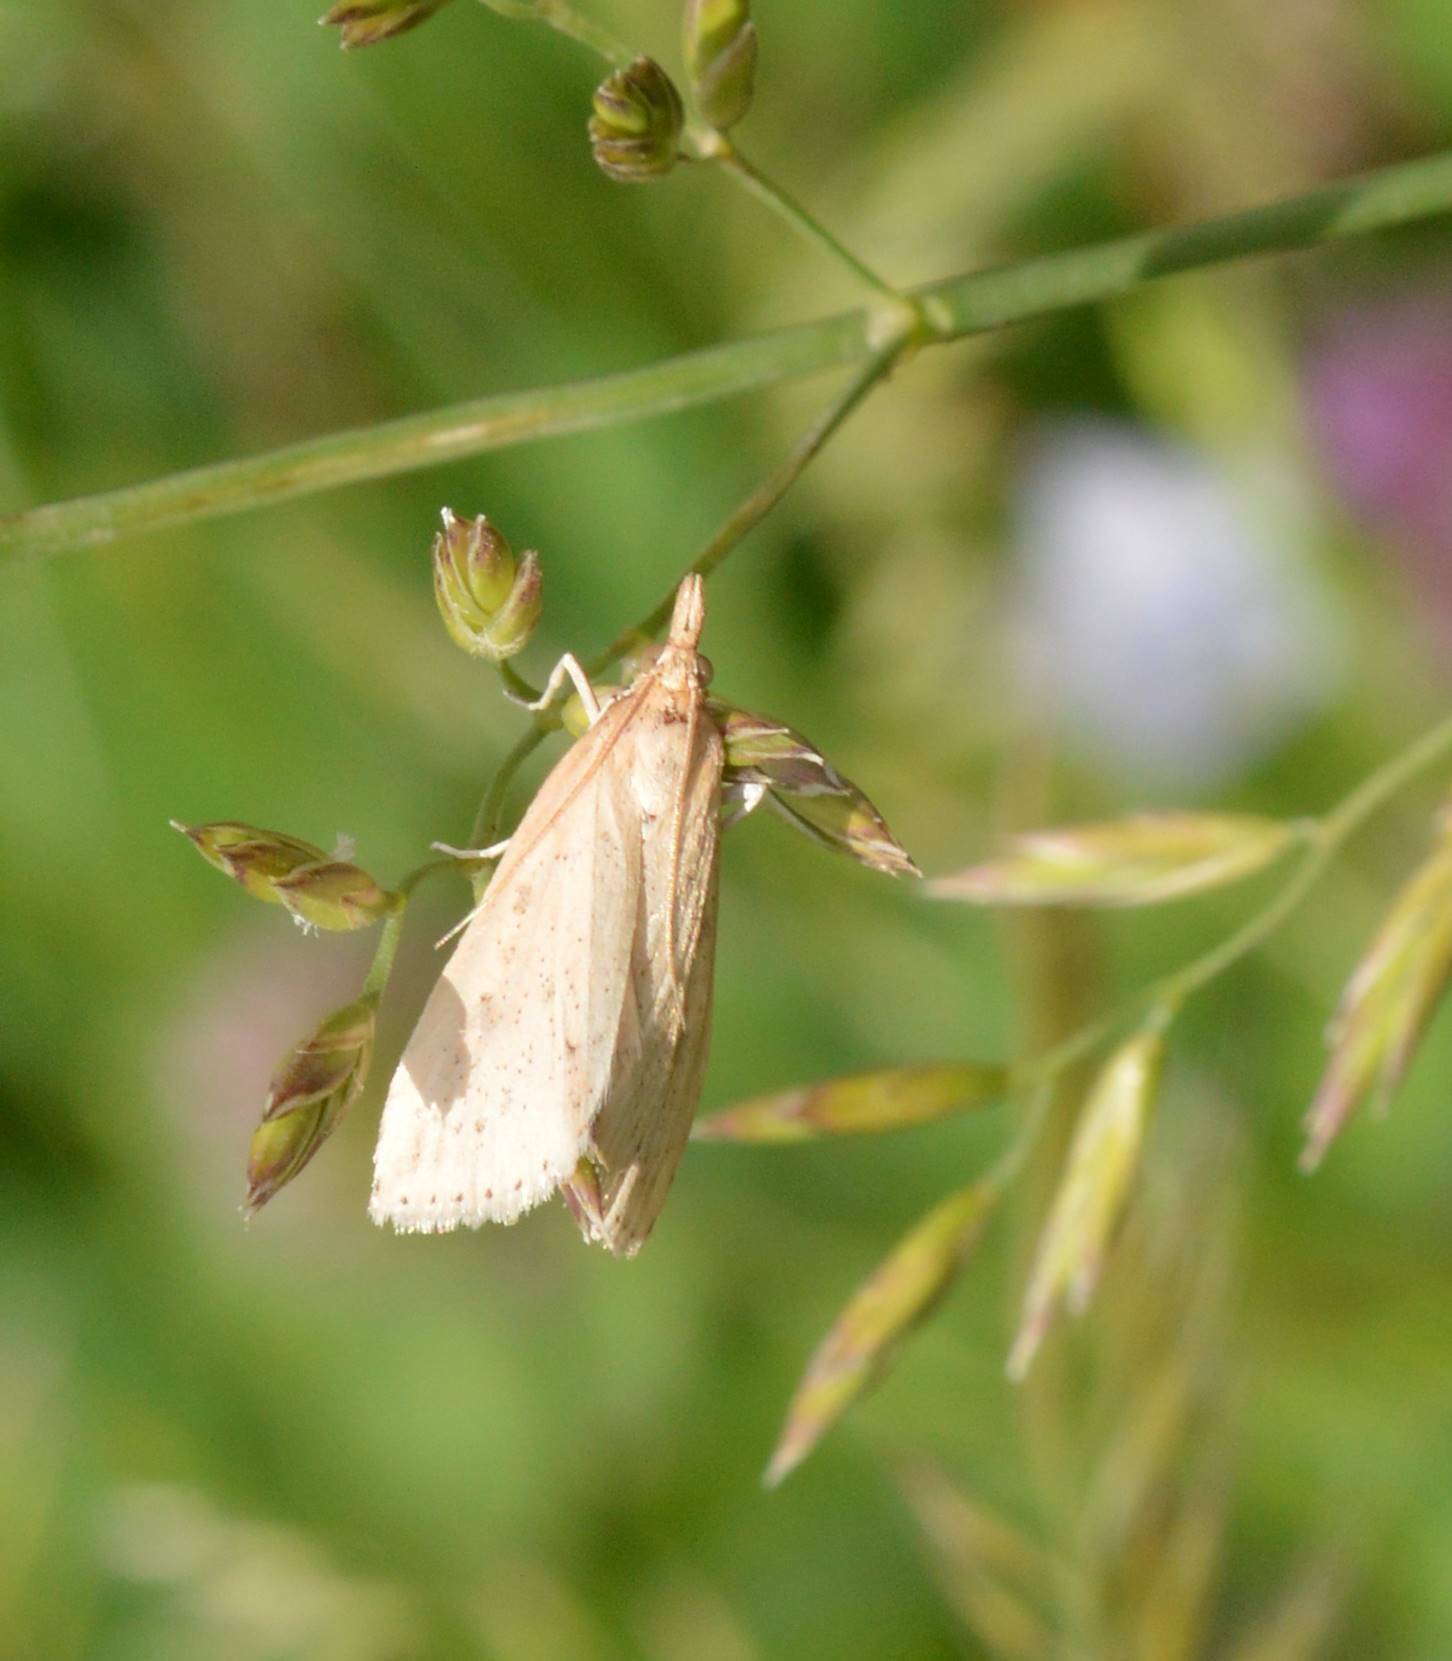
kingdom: Animalia
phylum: Arthropoda
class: Insecta
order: Lepidoptera
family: Crambidae
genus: Udea
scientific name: Udea numeralis
